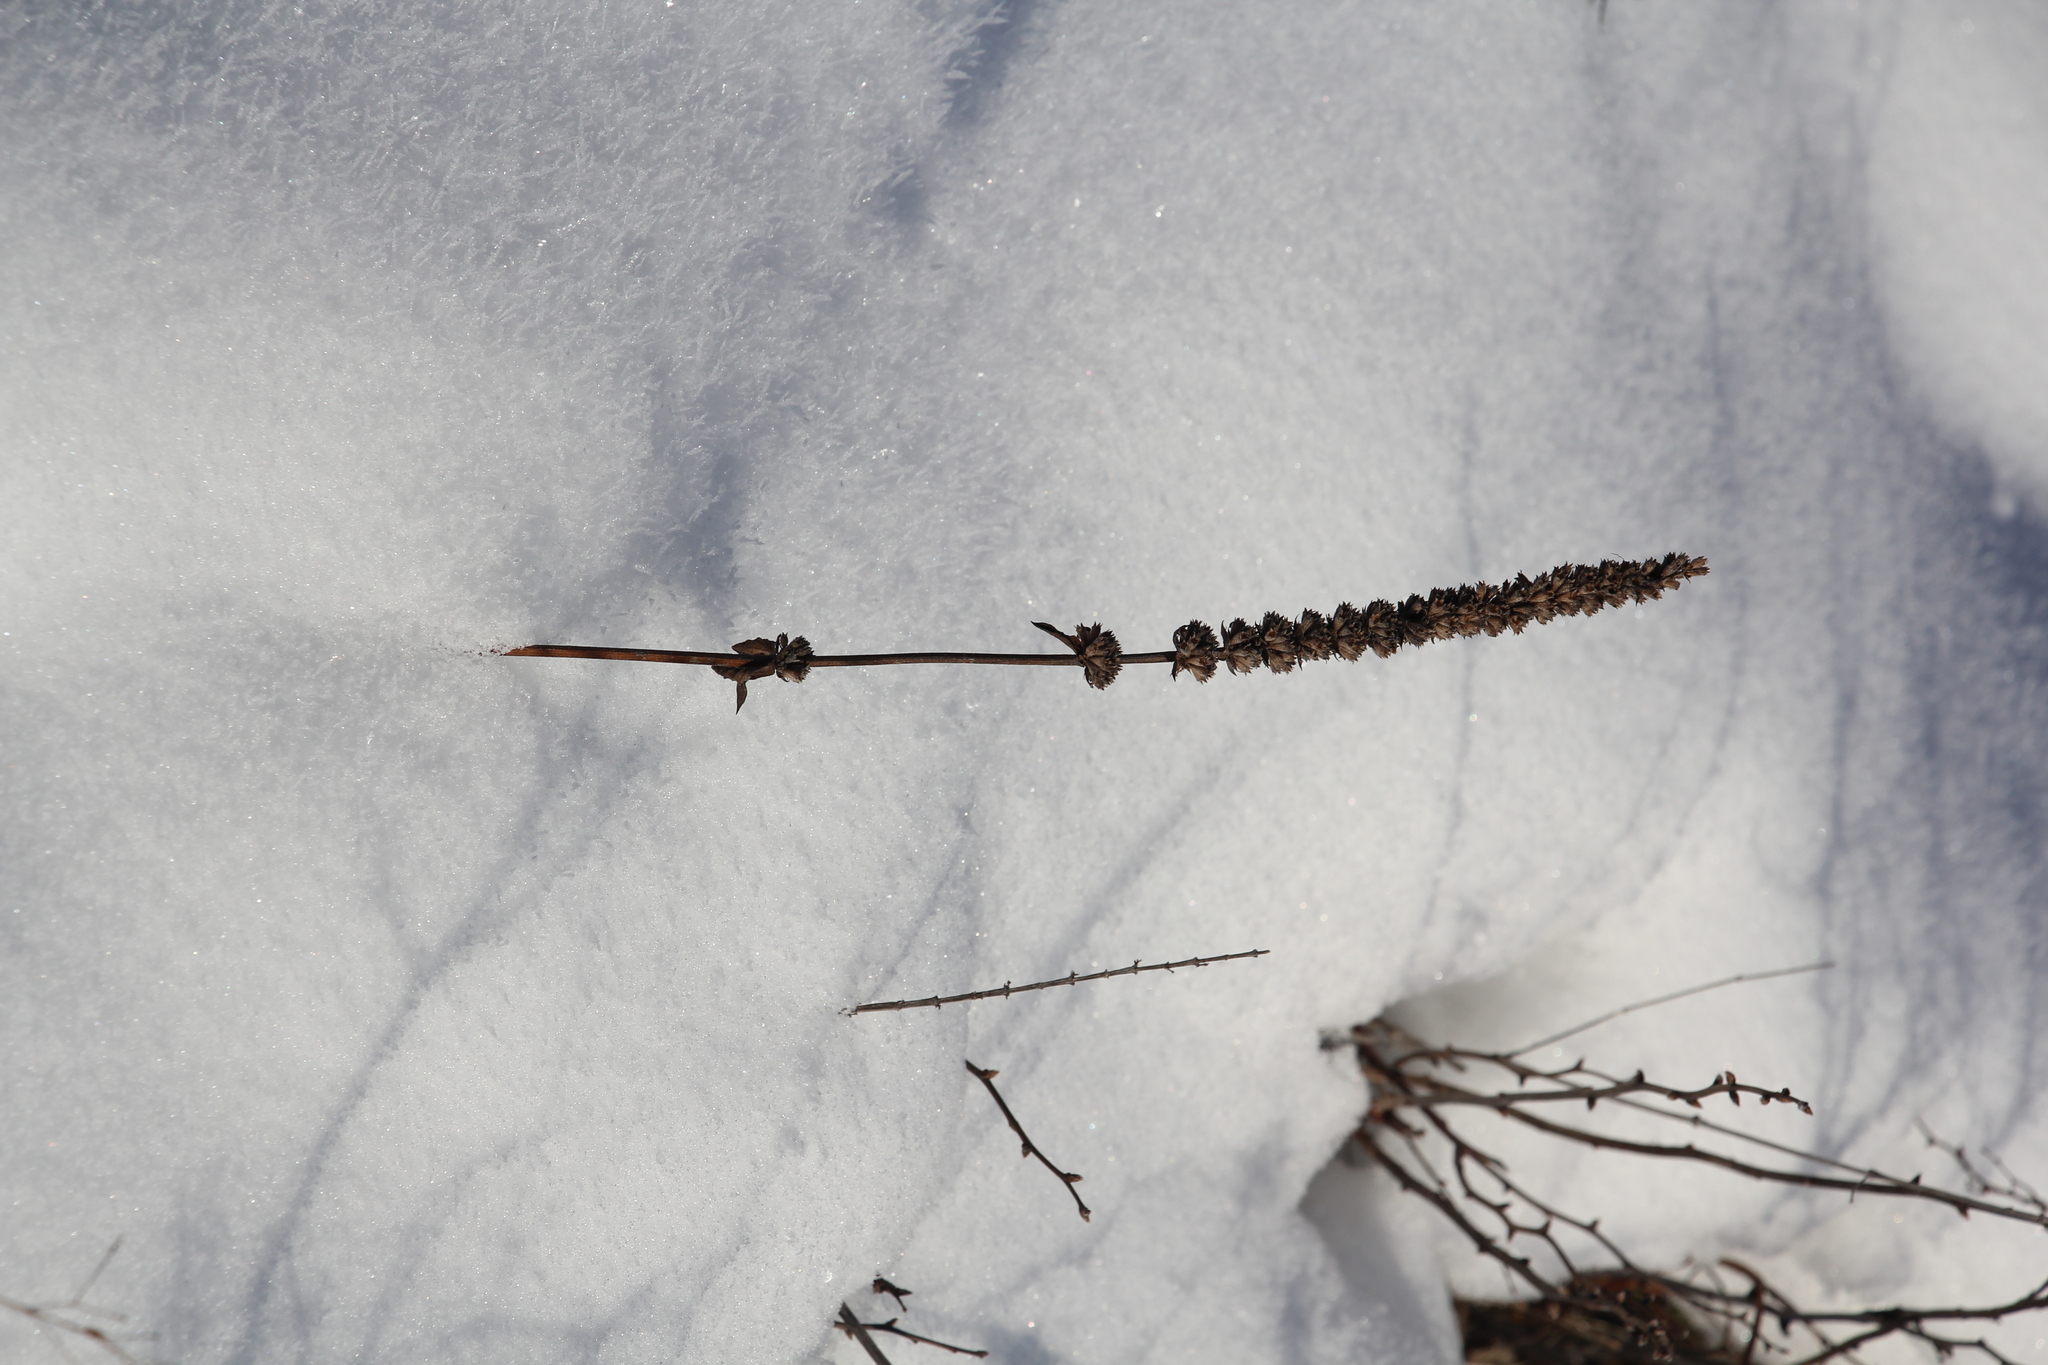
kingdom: Plantae
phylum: Tracheophyta
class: Magnoliopsida
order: Lamiales
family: Lamiaceae
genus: Nepeta
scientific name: Nepeta multifida
